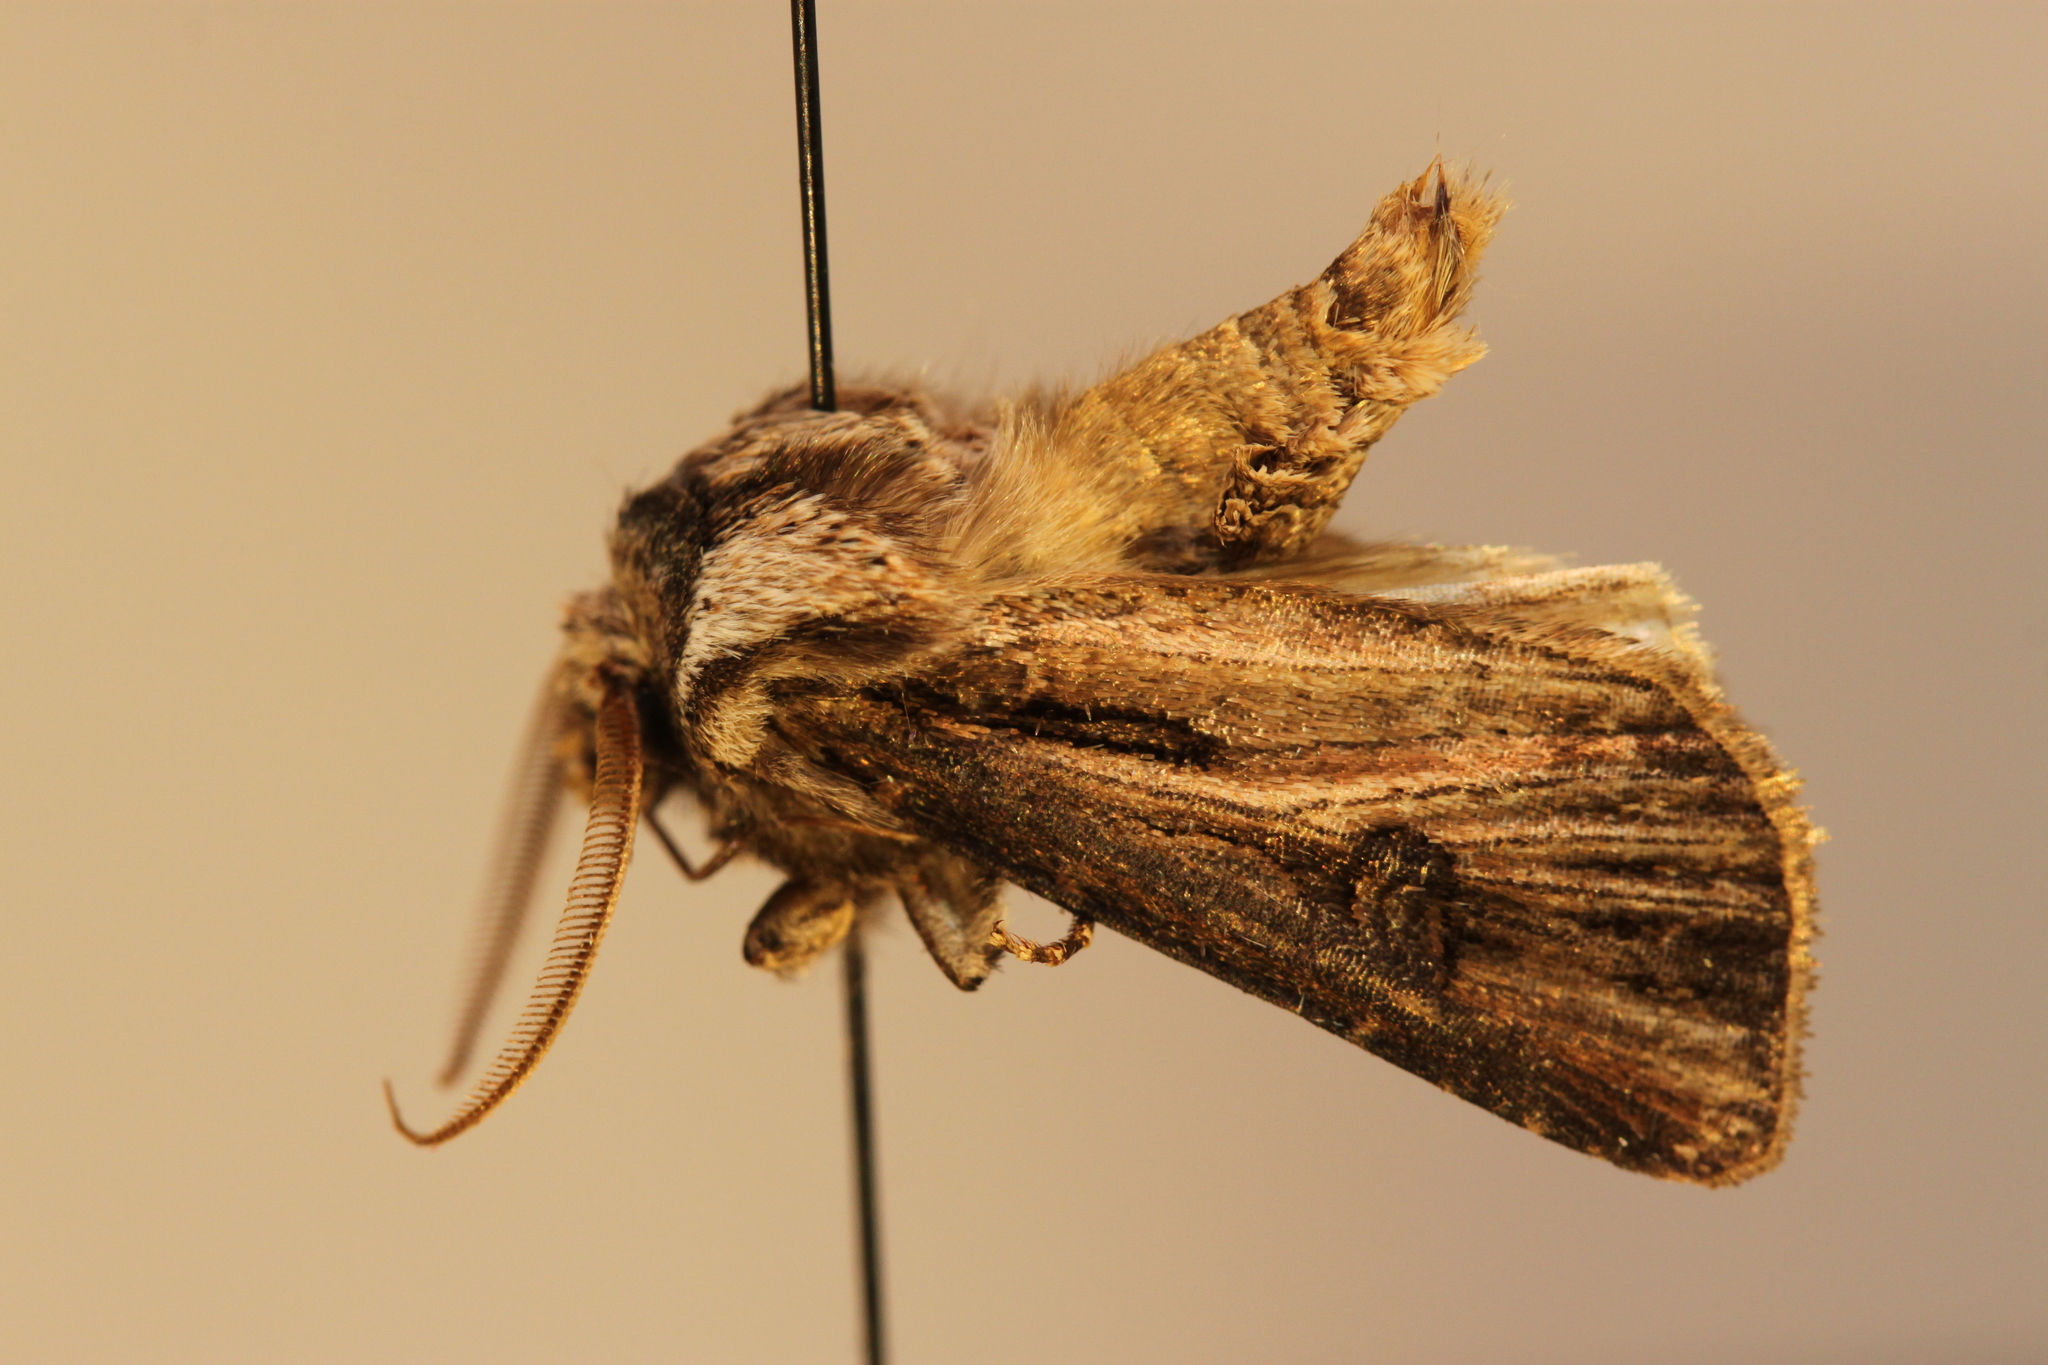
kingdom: Animalia
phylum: Arthropoda
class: Insecta
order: Lepidoptera
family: Noctuidae
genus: Agrotis
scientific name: Agrotis venerabilis
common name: Venerable dart
